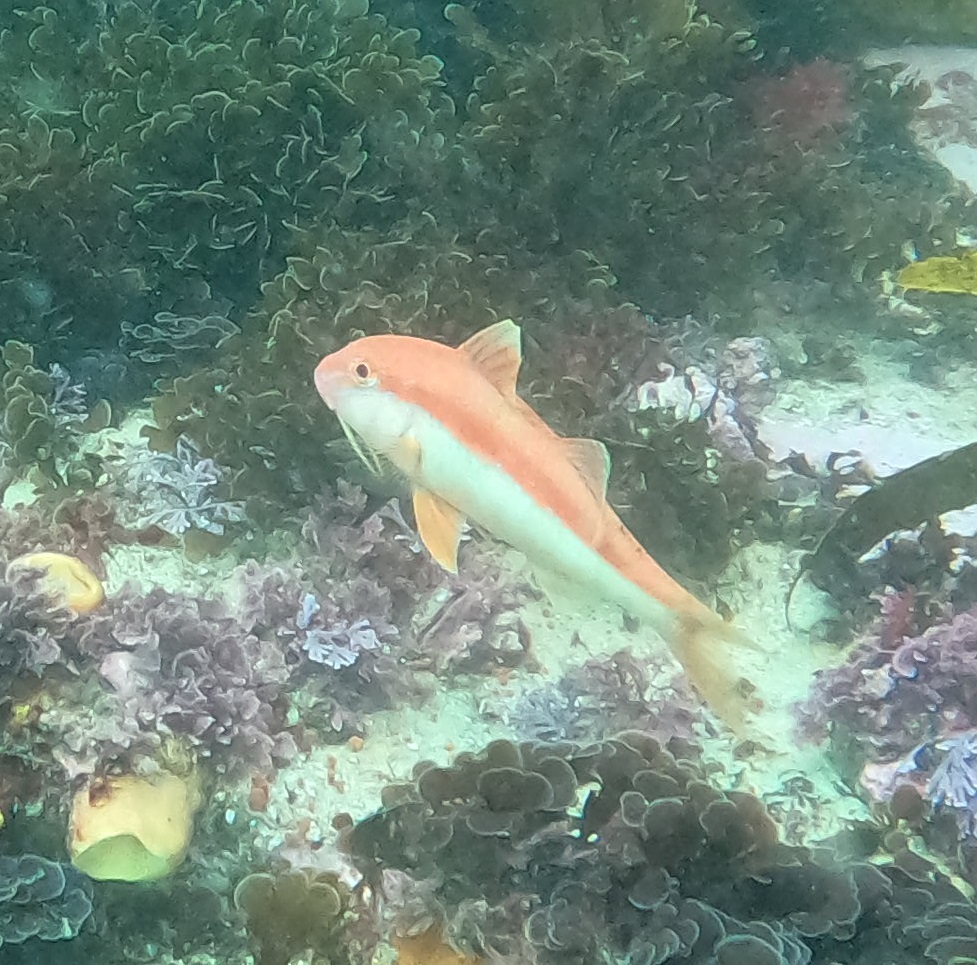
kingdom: Animalia
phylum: Chordata
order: Perciformes
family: Mullidae
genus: Upeneichthys
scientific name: Upeneichthys lineatus
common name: Red mullet
